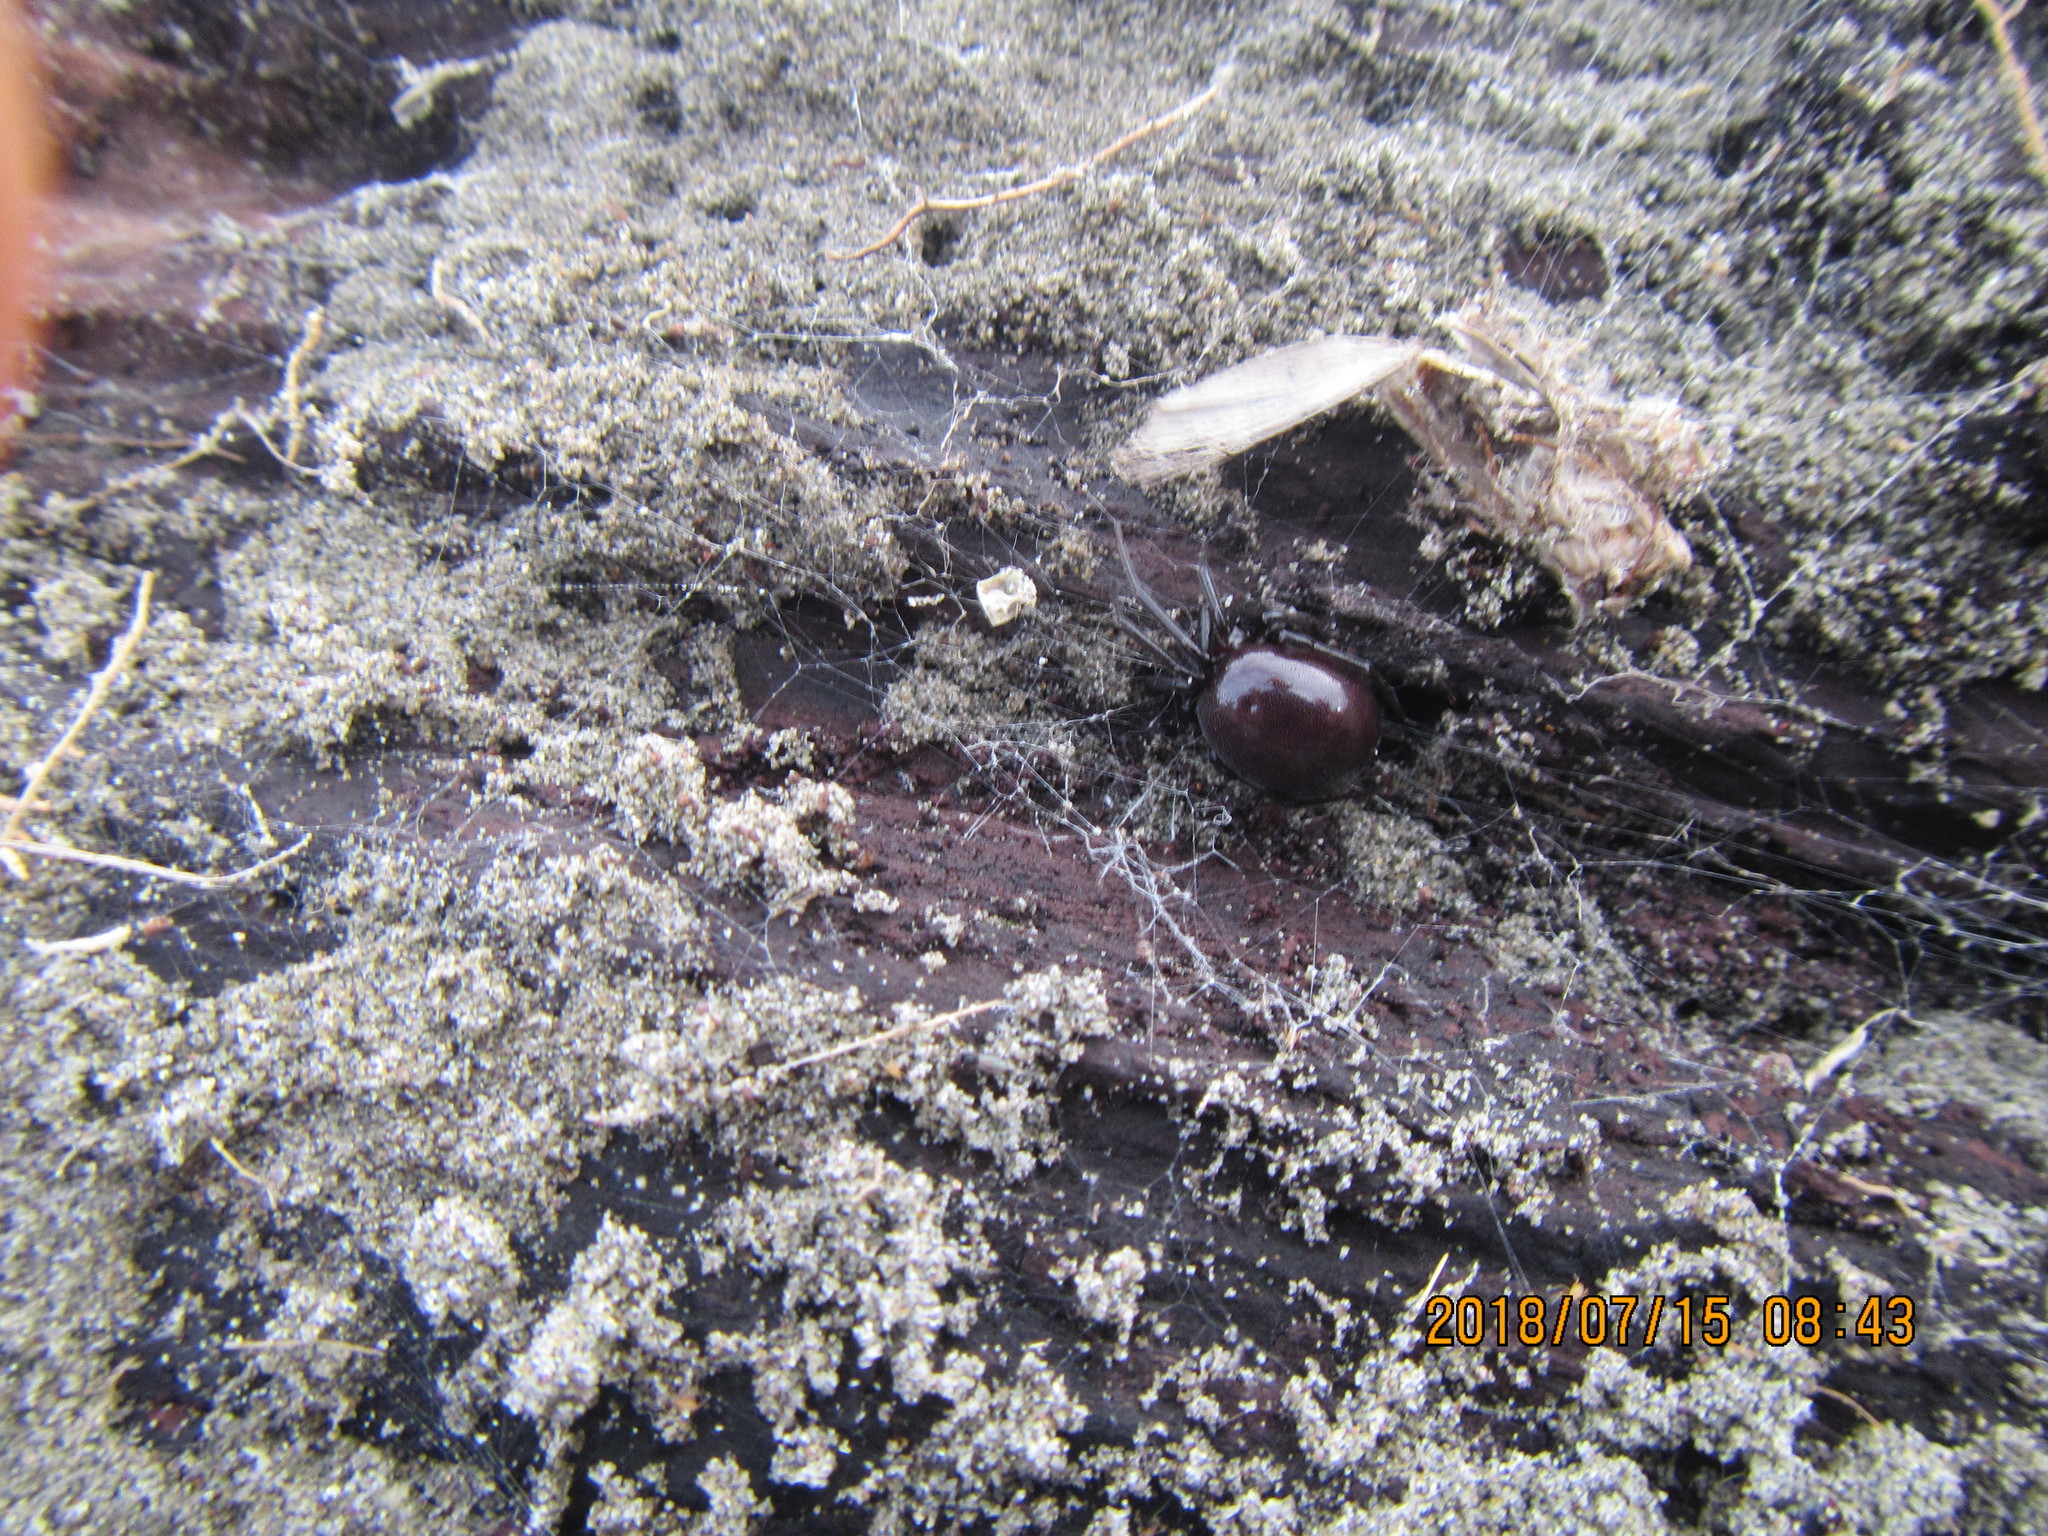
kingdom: Animalia
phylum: Arthropoda
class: Arachnida
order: Araneae
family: Theridiidae
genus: Steatoda
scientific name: Steatoda capensis
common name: Cobweb weaver
